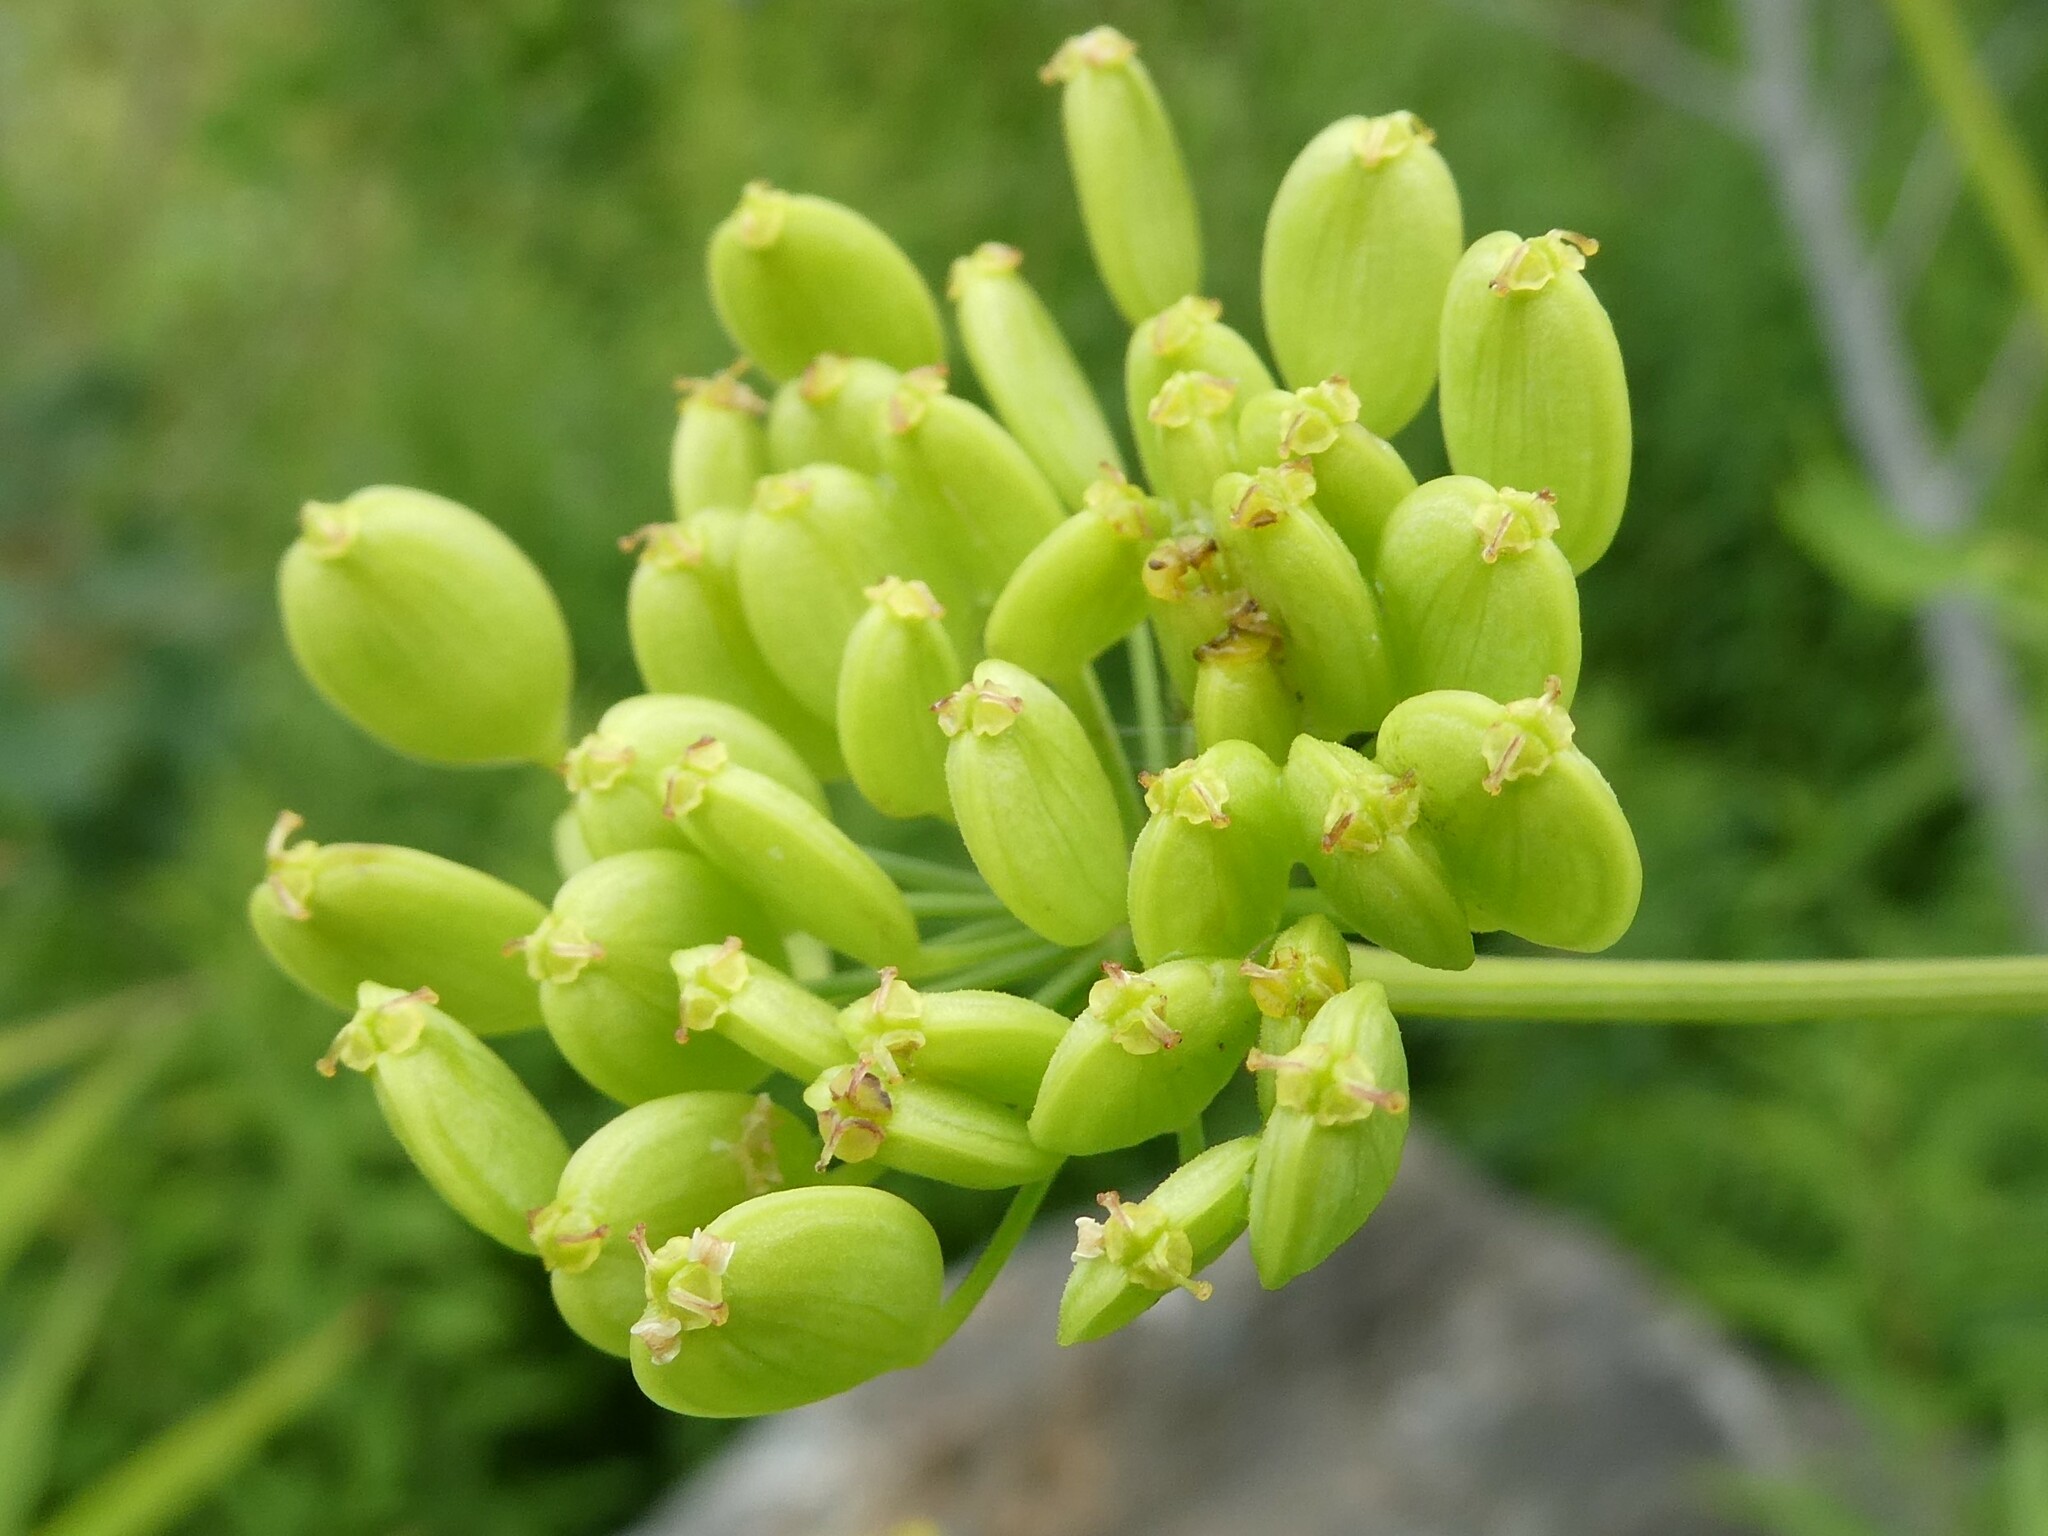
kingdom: Plantae
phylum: Tracheophyta
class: Magnoliopsida
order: Apiales
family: Apiaceae
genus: Pastinaca
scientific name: Pastinaca sativa
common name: Wild parsnip
